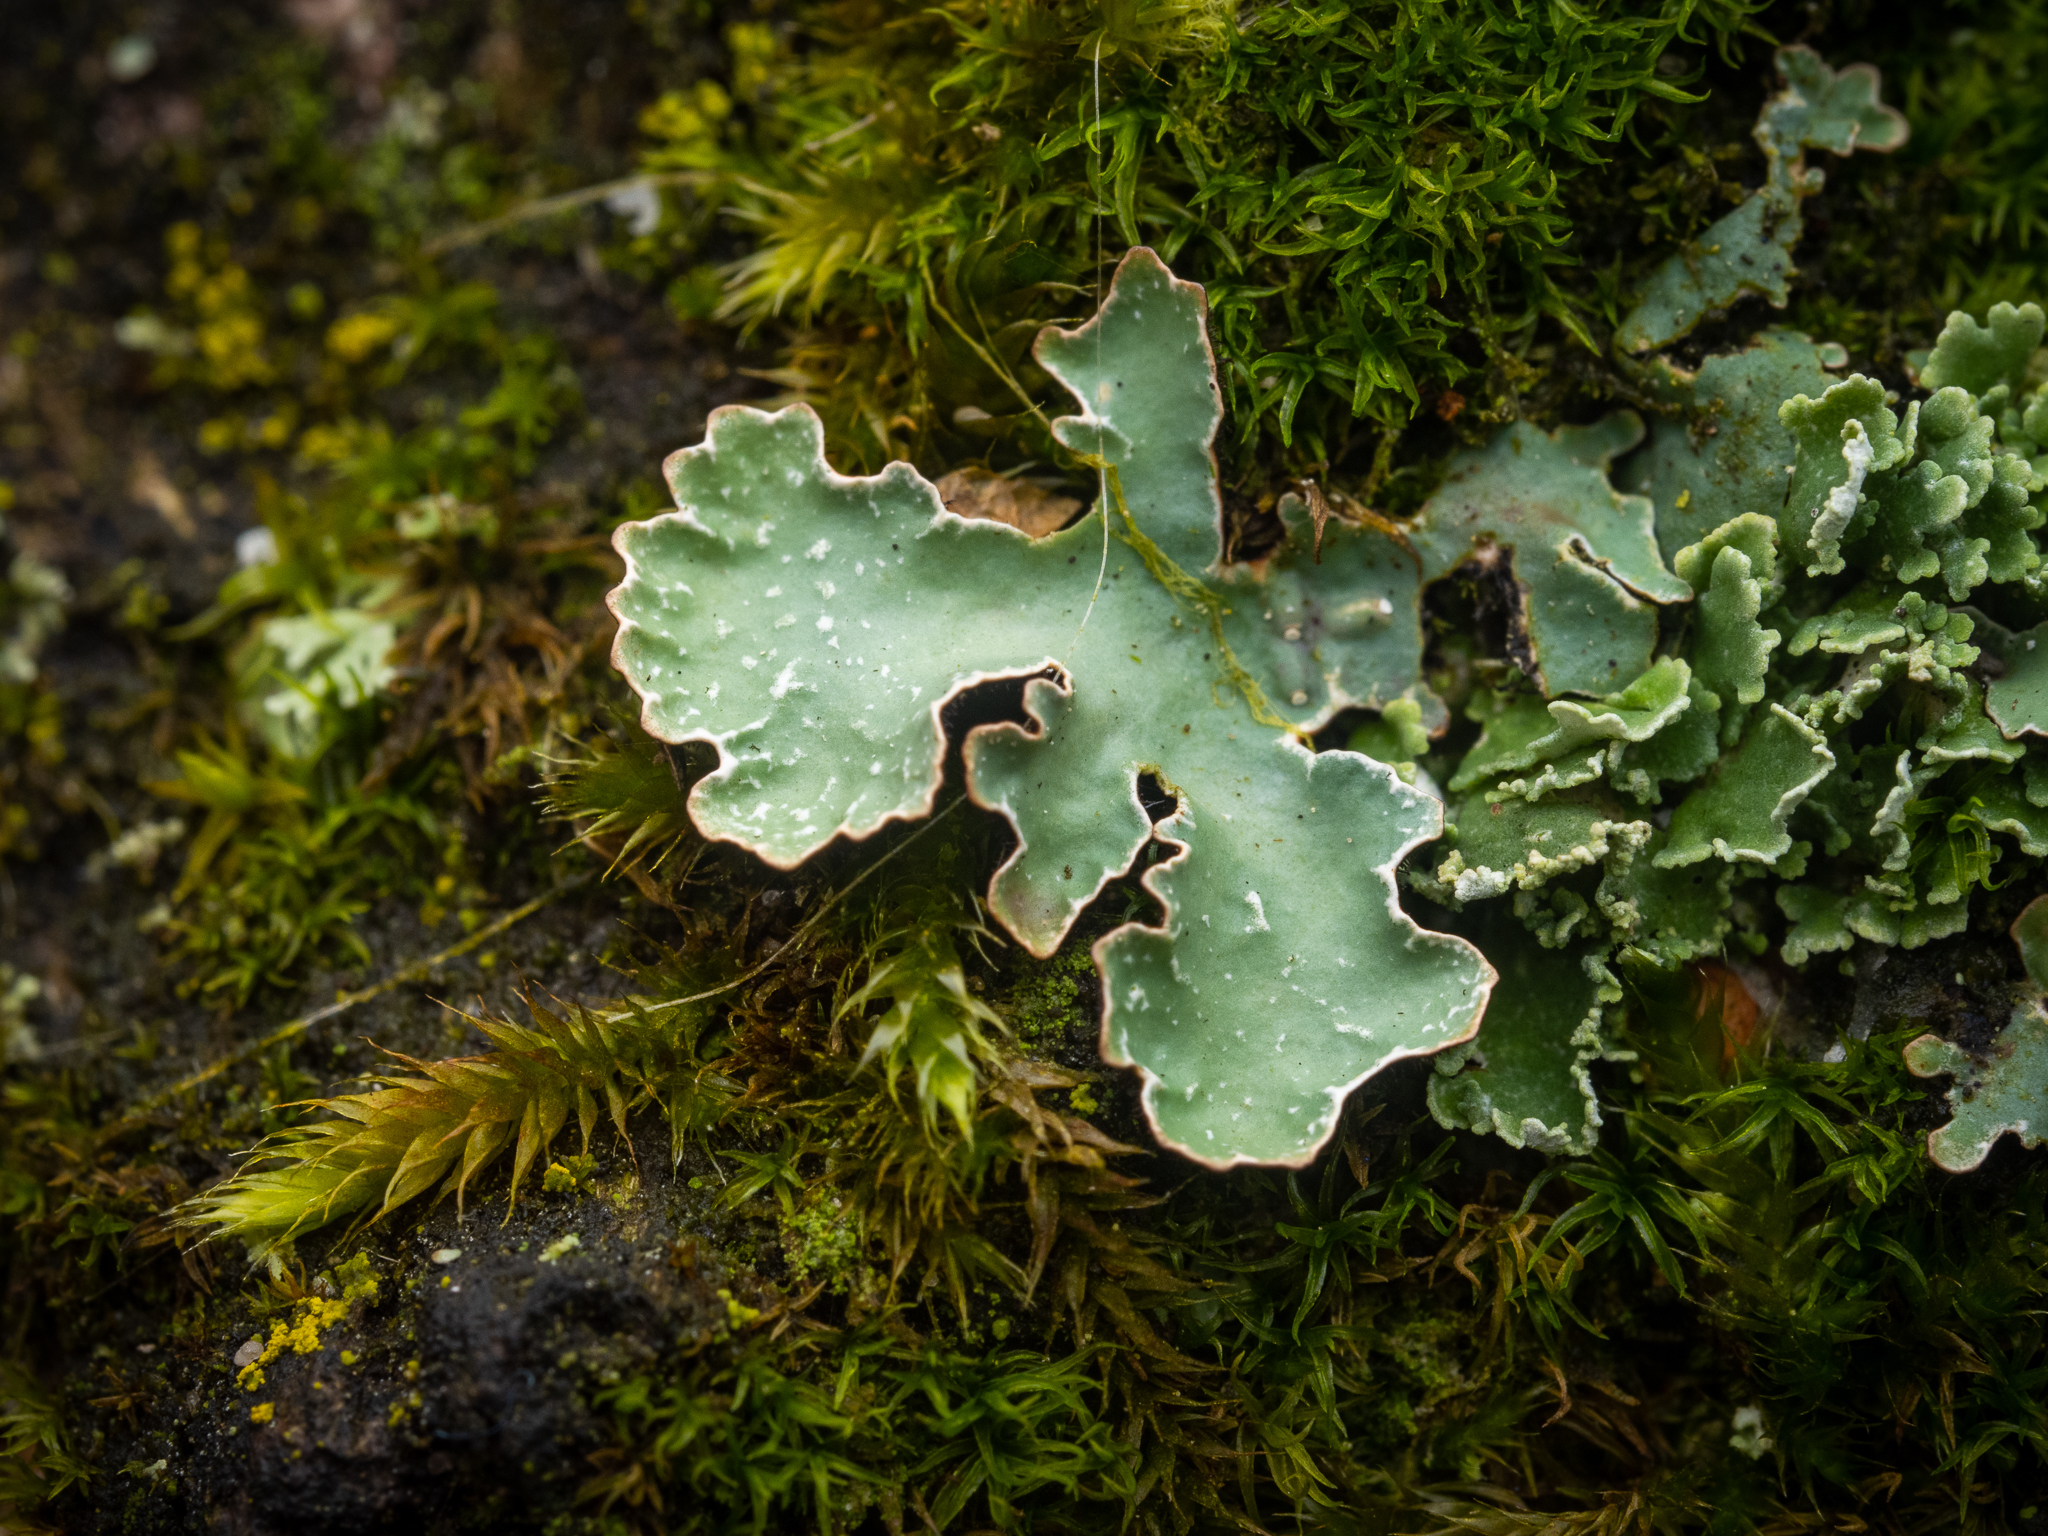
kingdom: Fungi
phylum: Ascomycota
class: Lecanoromycetes
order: Lecanorales
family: Parmeliaceae
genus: Parmelia
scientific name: Parmelia sulcata
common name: Netted shield lichen
